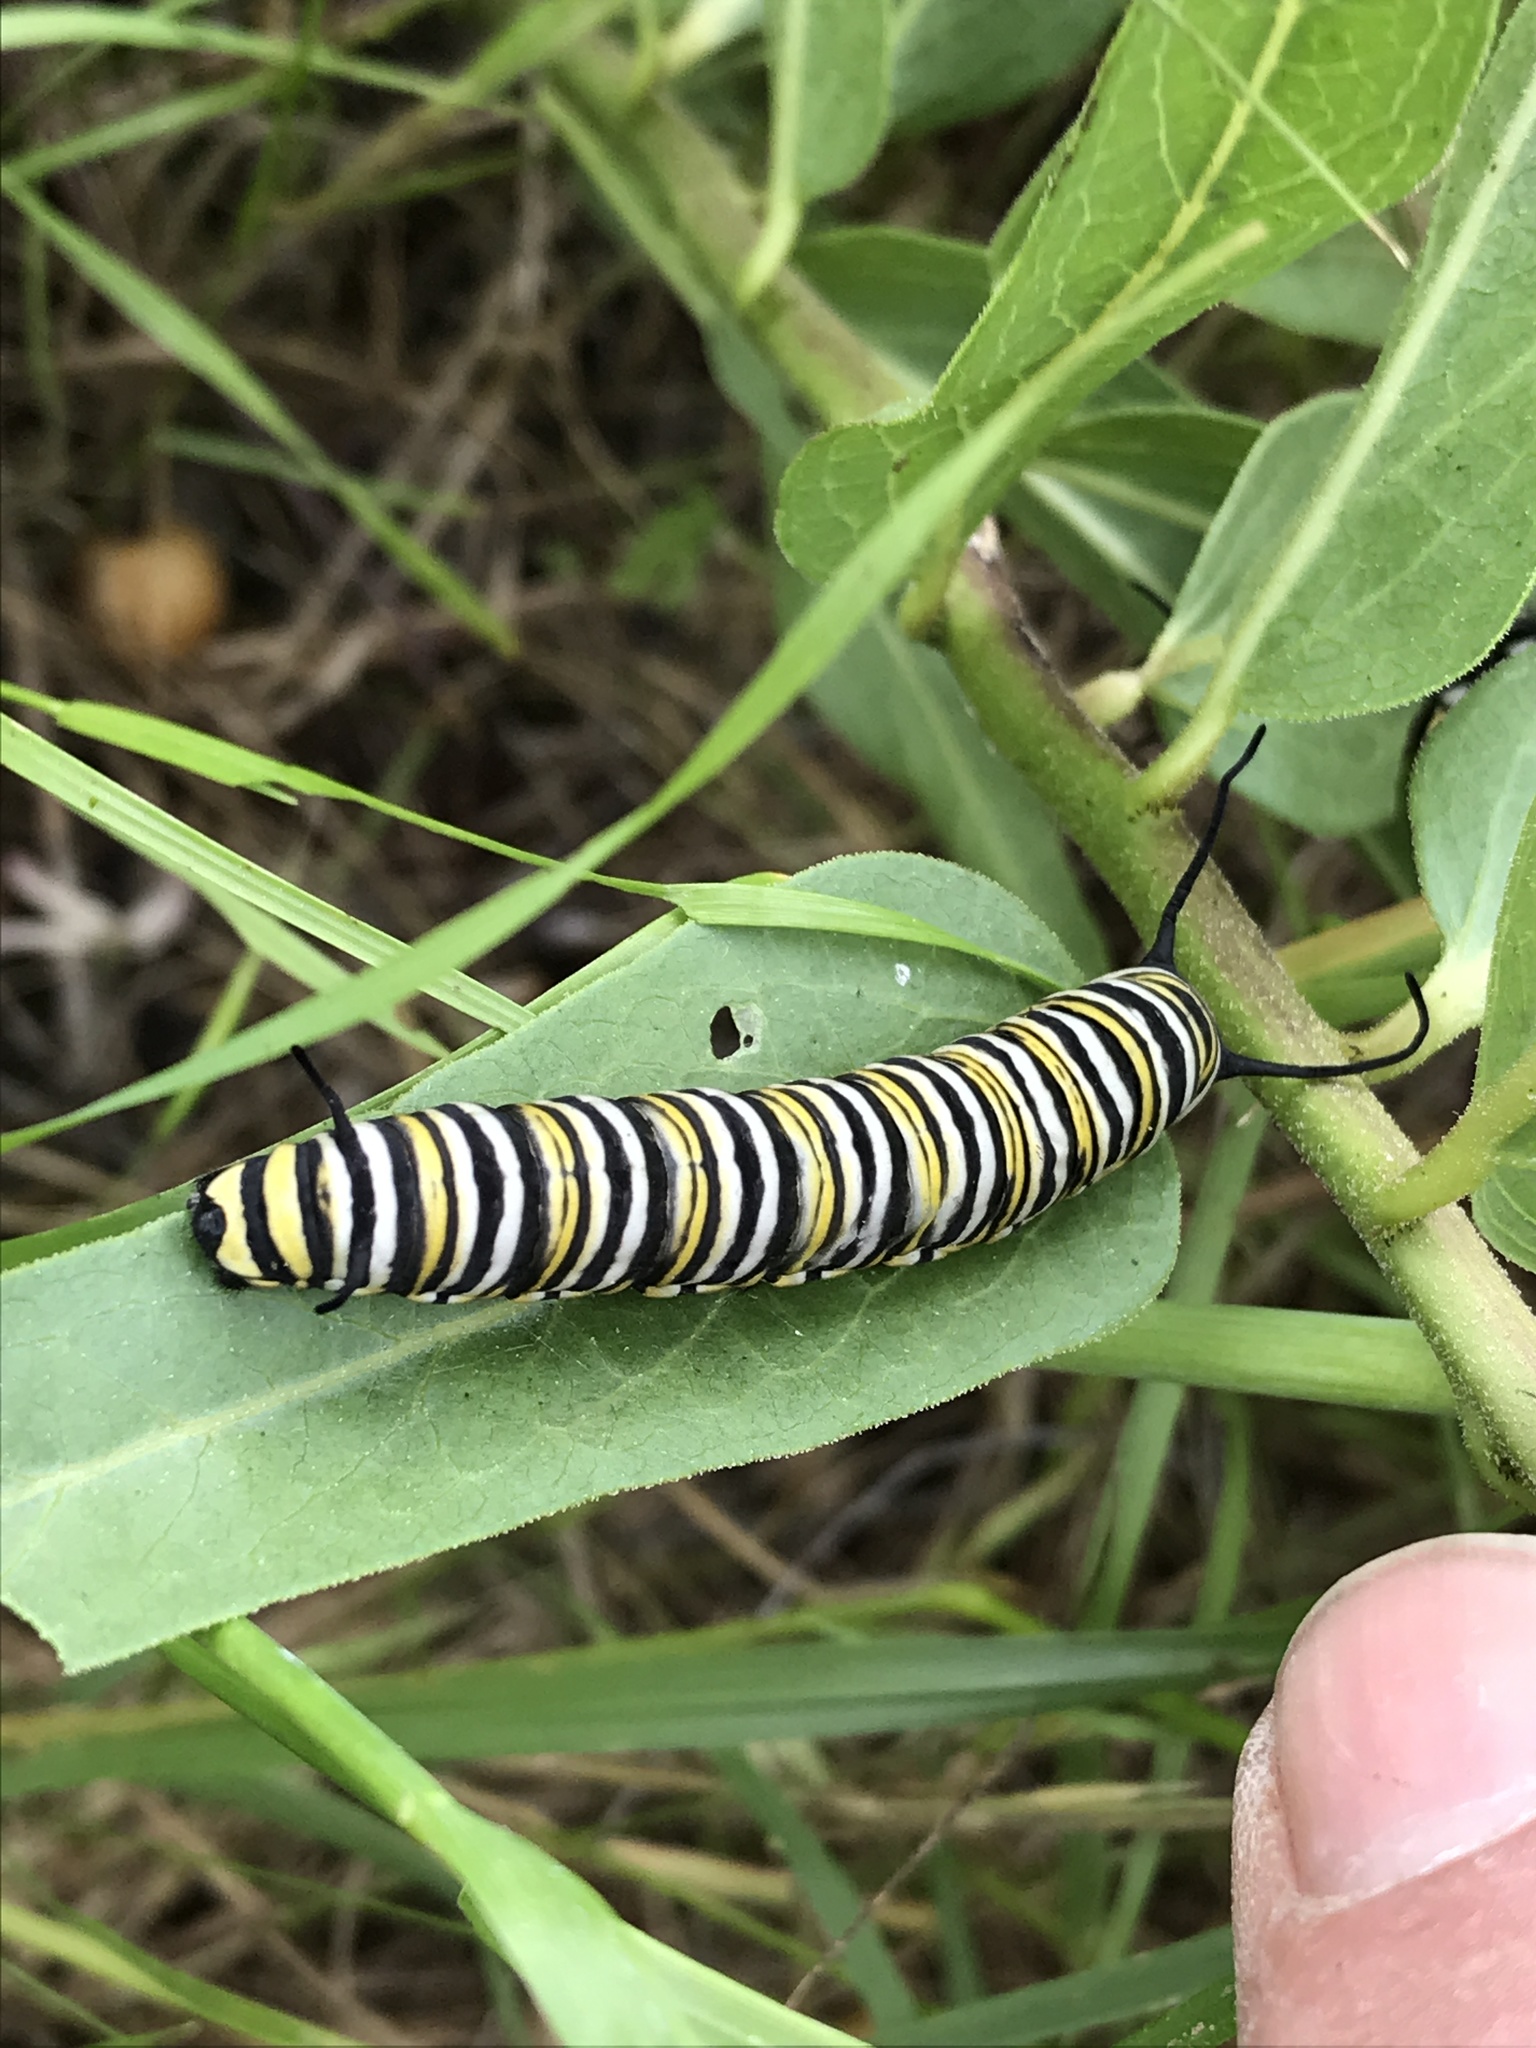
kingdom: Animalia
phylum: Arthropoda
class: Insecta
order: Lepidoptera
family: Nymphalidae
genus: Danaus
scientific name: Danaus plexippus
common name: Monarch
